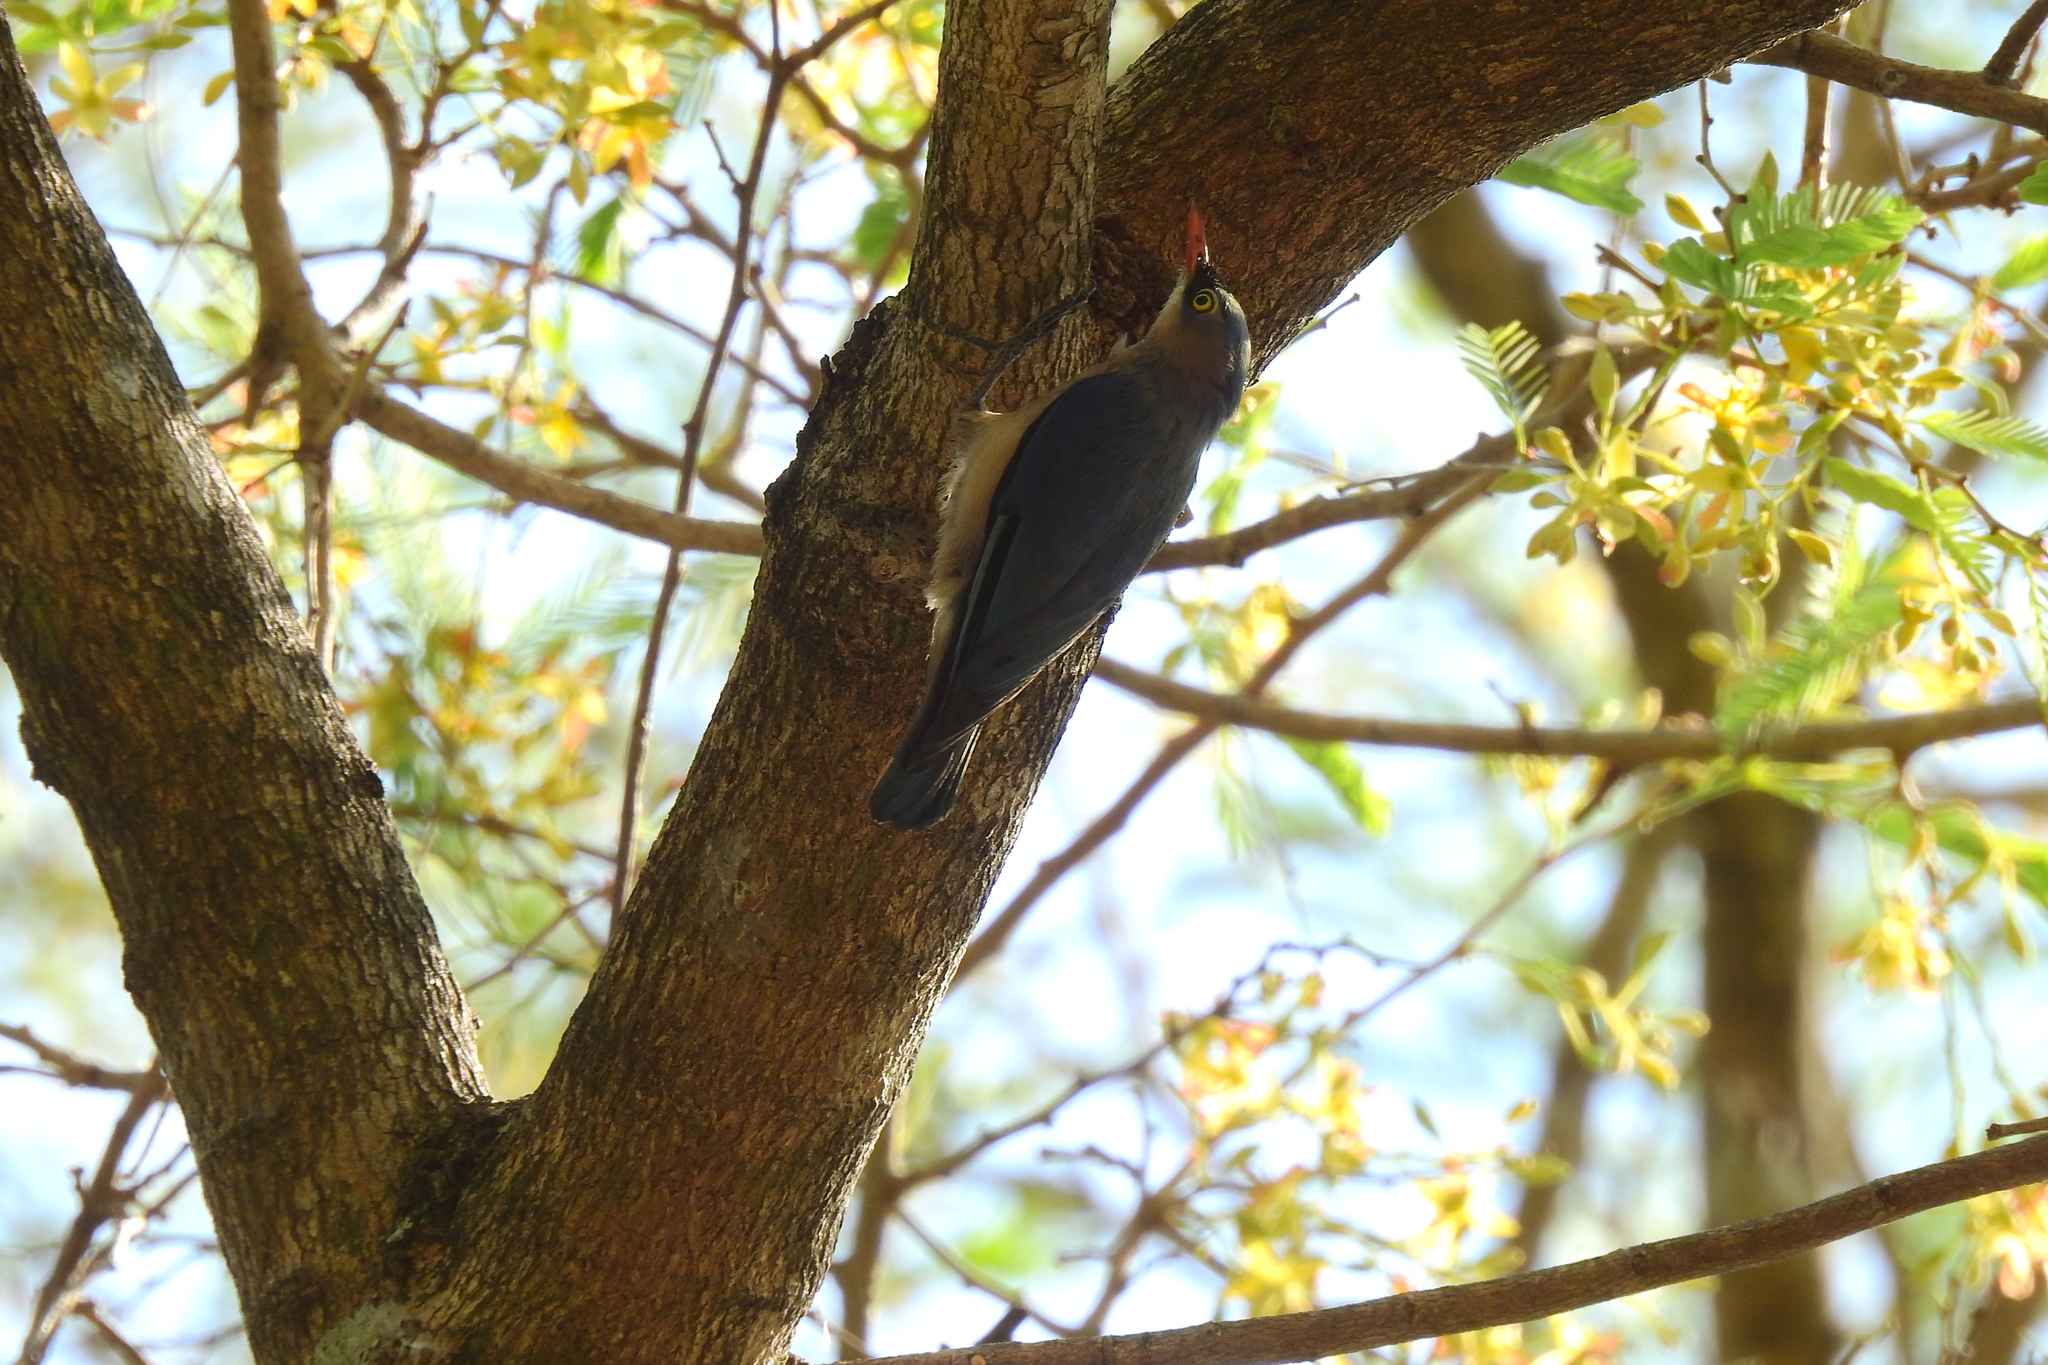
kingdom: Animalia
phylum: Chordata
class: Aves
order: Passeriformes
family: Sittidae
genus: Sitta
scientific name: Sitta frontalis
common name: Velvet-fronted nuthatch
